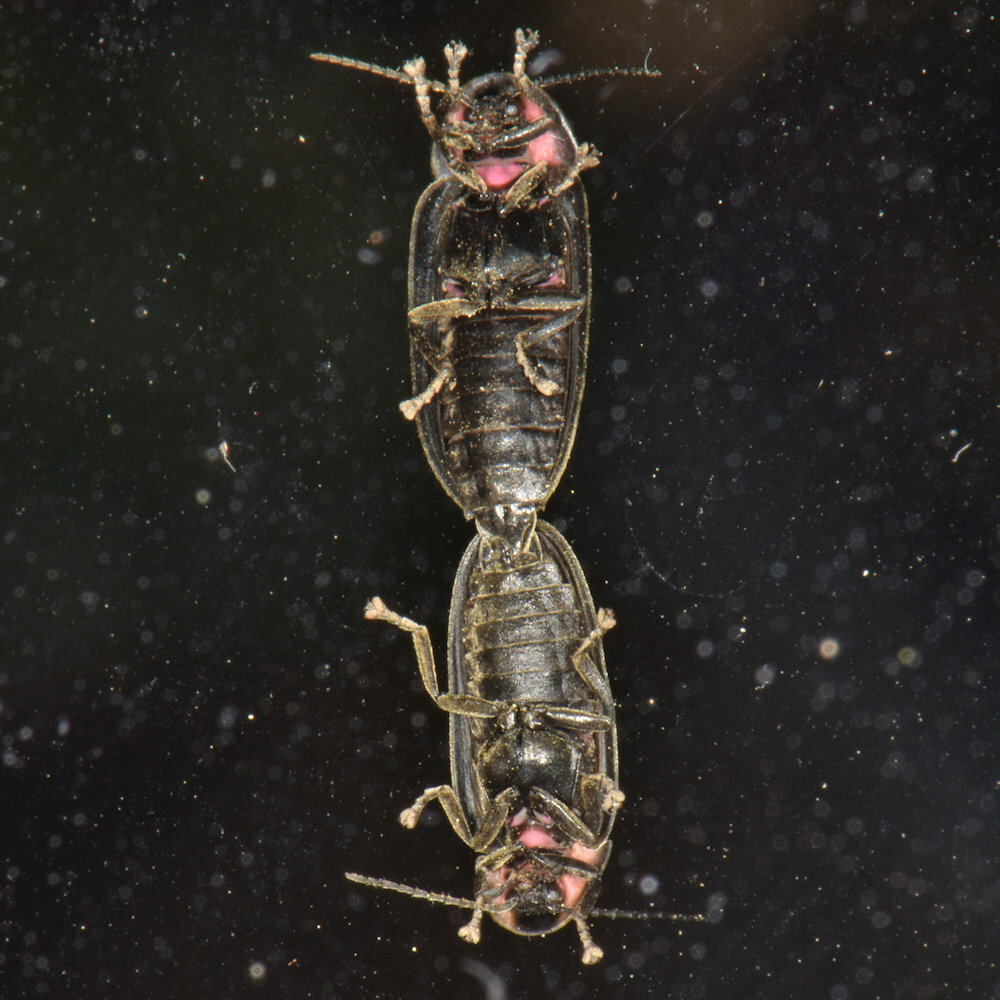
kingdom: Animalia
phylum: Arthropoda
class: Insecta
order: Coleoptera
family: Lampyridae
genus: Photinus
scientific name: Photinus corrusca
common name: Winter firefly
